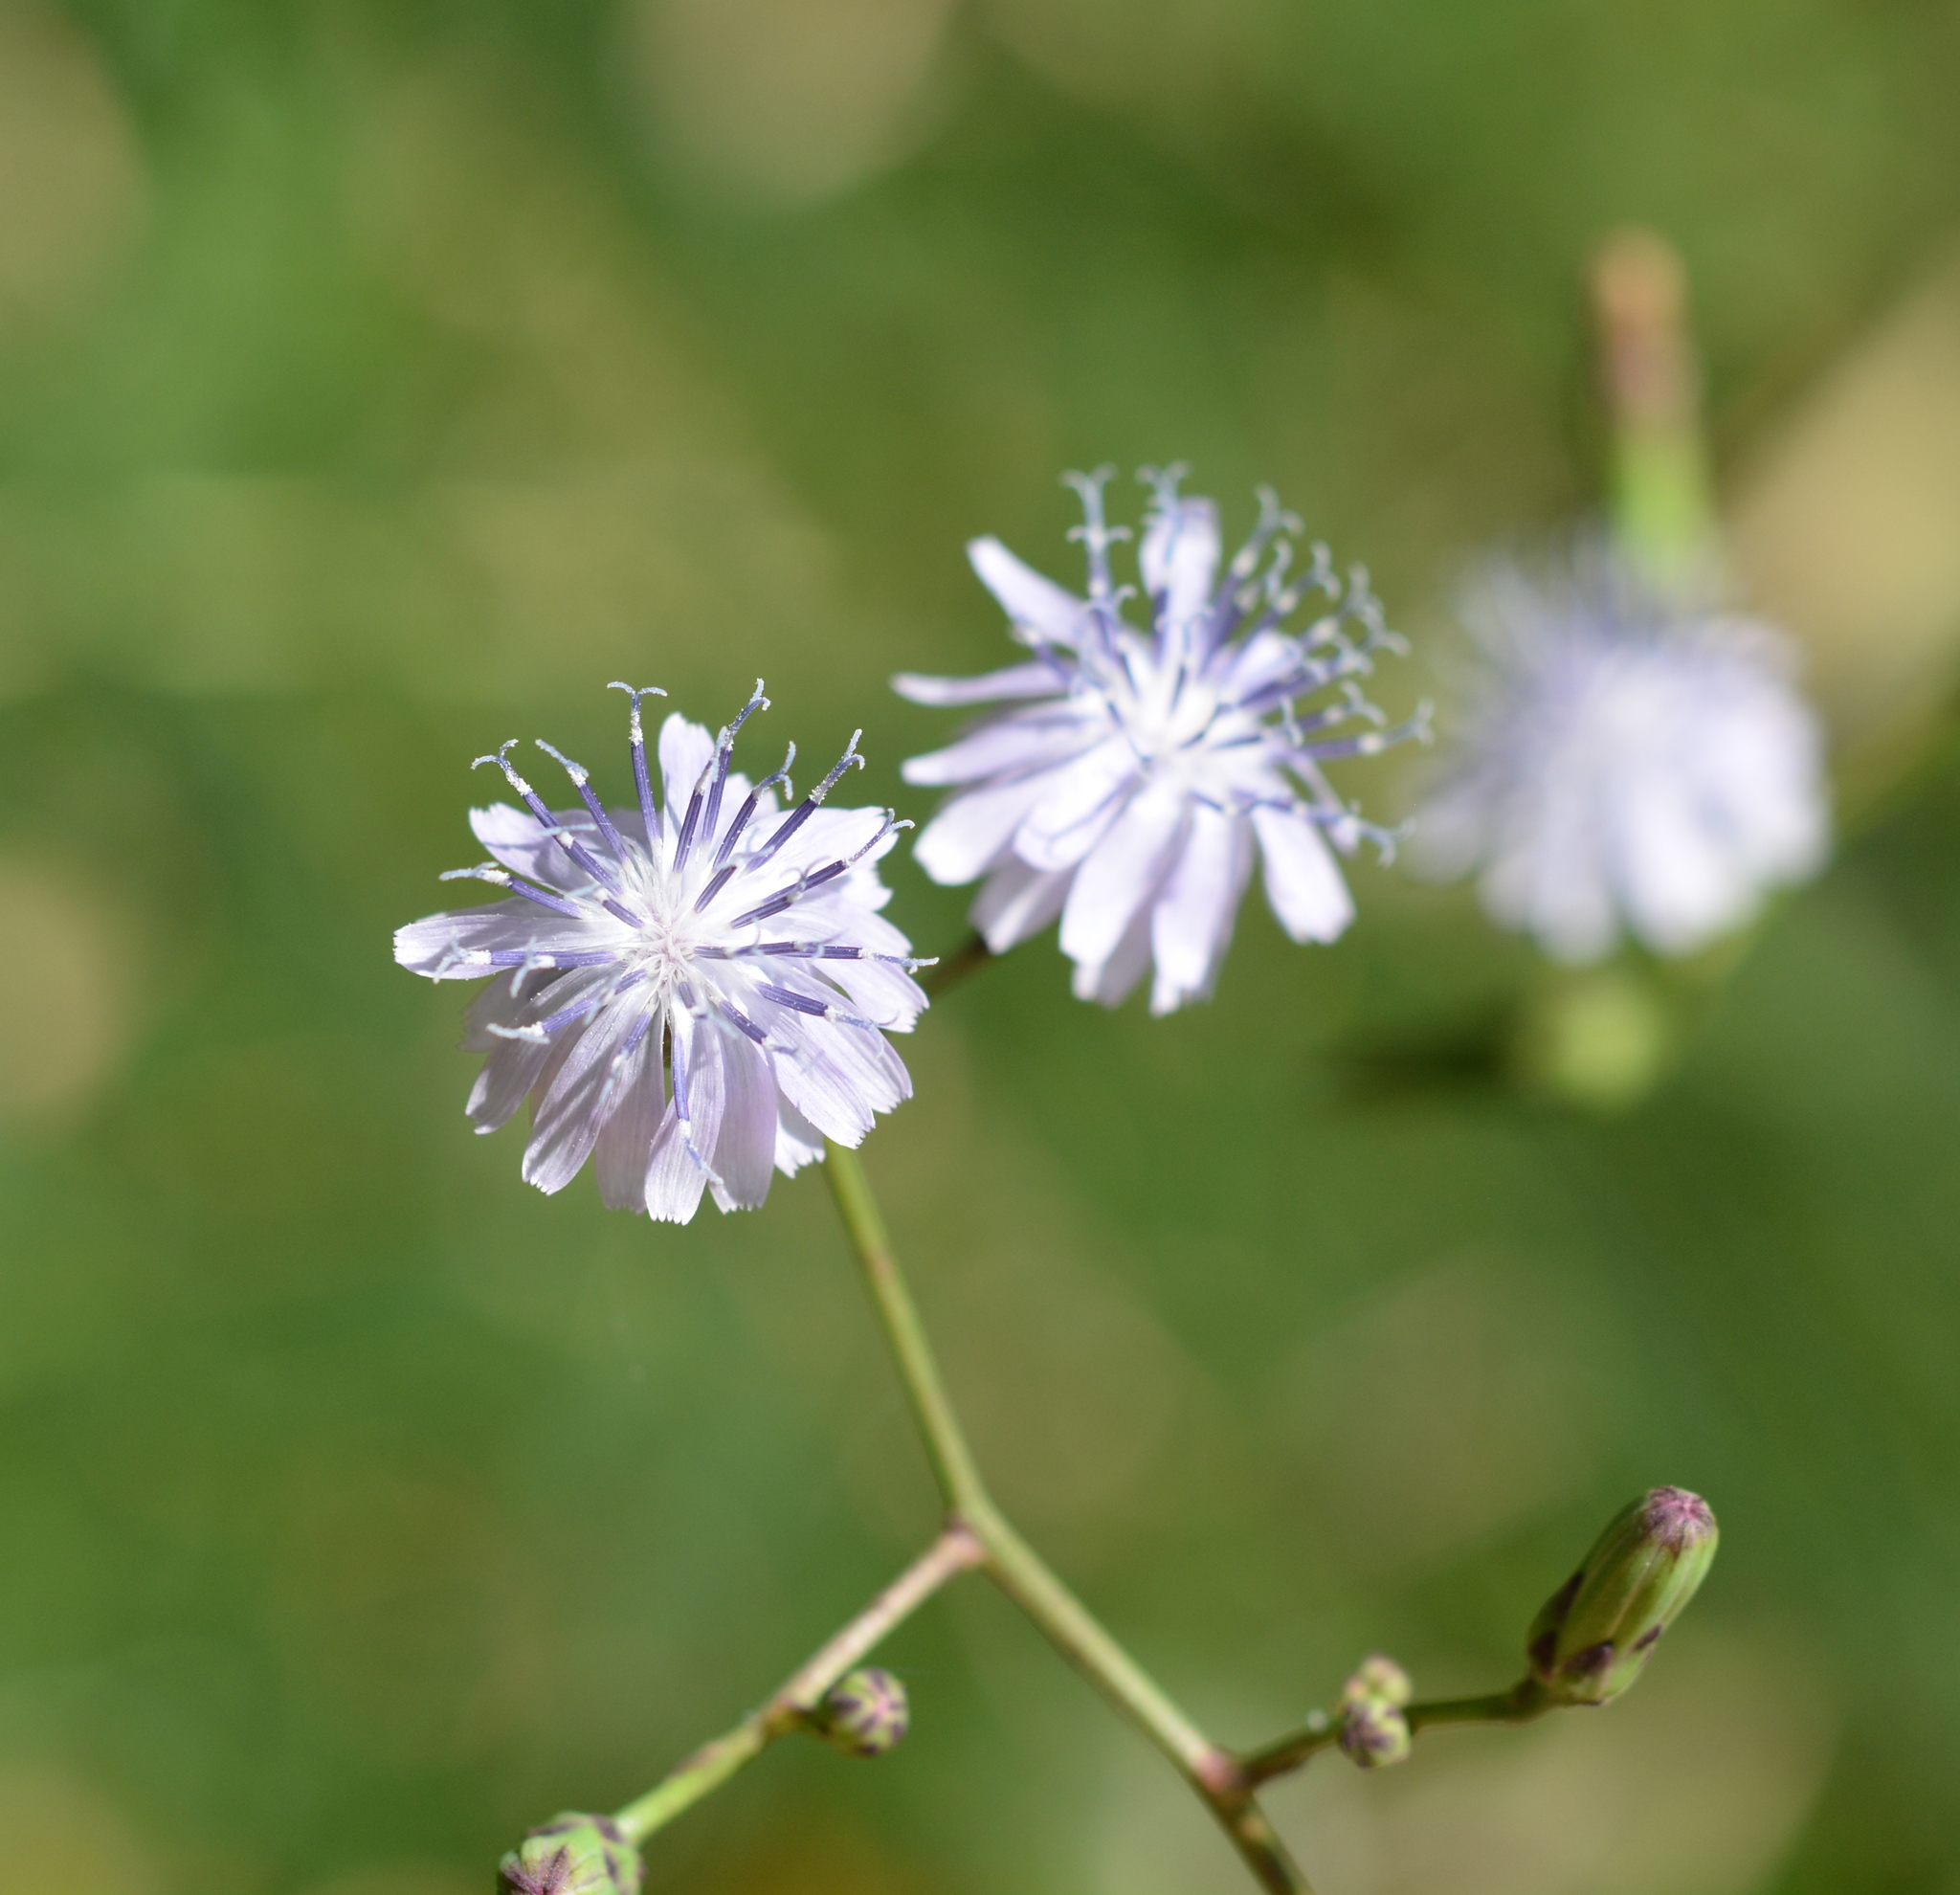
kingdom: Plantae
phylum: Tracheophyta
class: Magnoliopsida
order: Asterales
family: Asteraceae
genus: Lactuca
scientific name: Lactuca floridana
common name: Woodland lettuce
